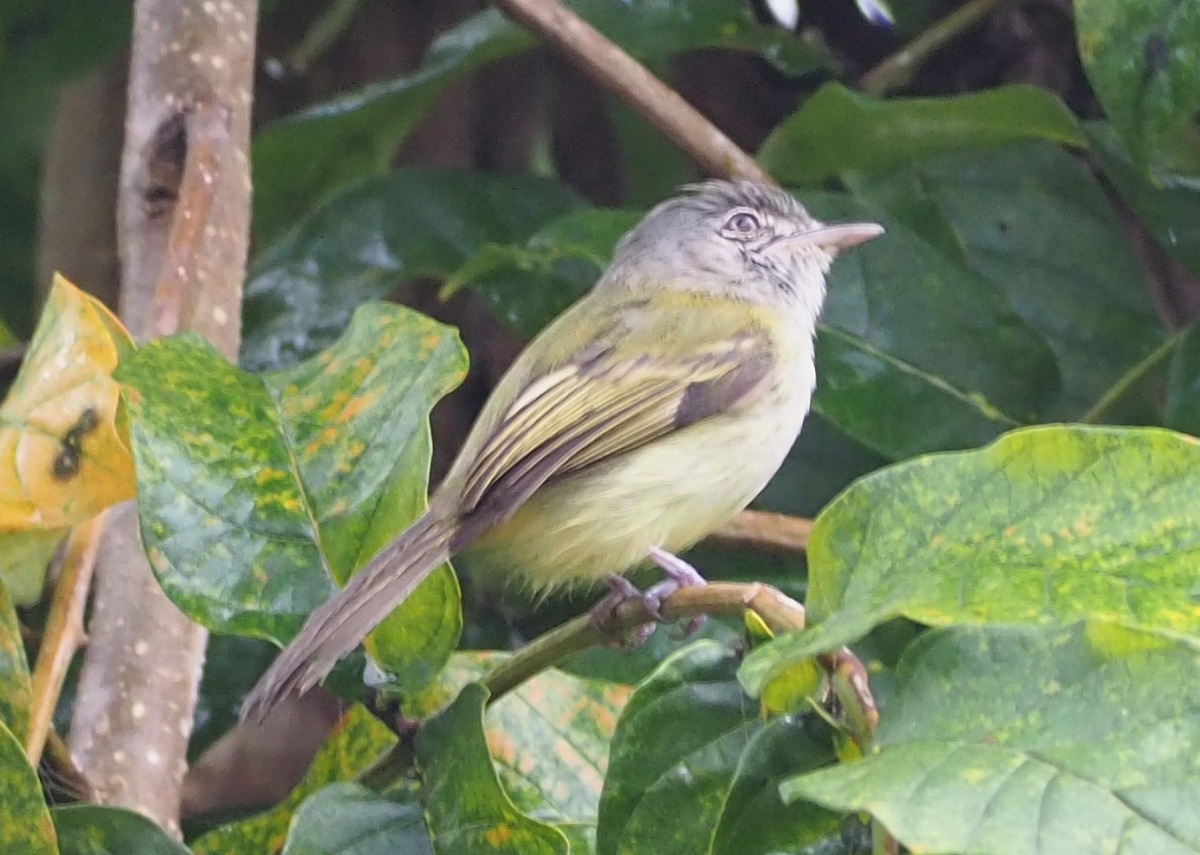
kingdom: Animalia
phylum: Chordata
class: Aves
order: Passeriformes
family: Tyrannidae
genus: Tolmomyias
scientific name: Tolmomyias sulphurescens
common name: Yellow-olive flycatcher
